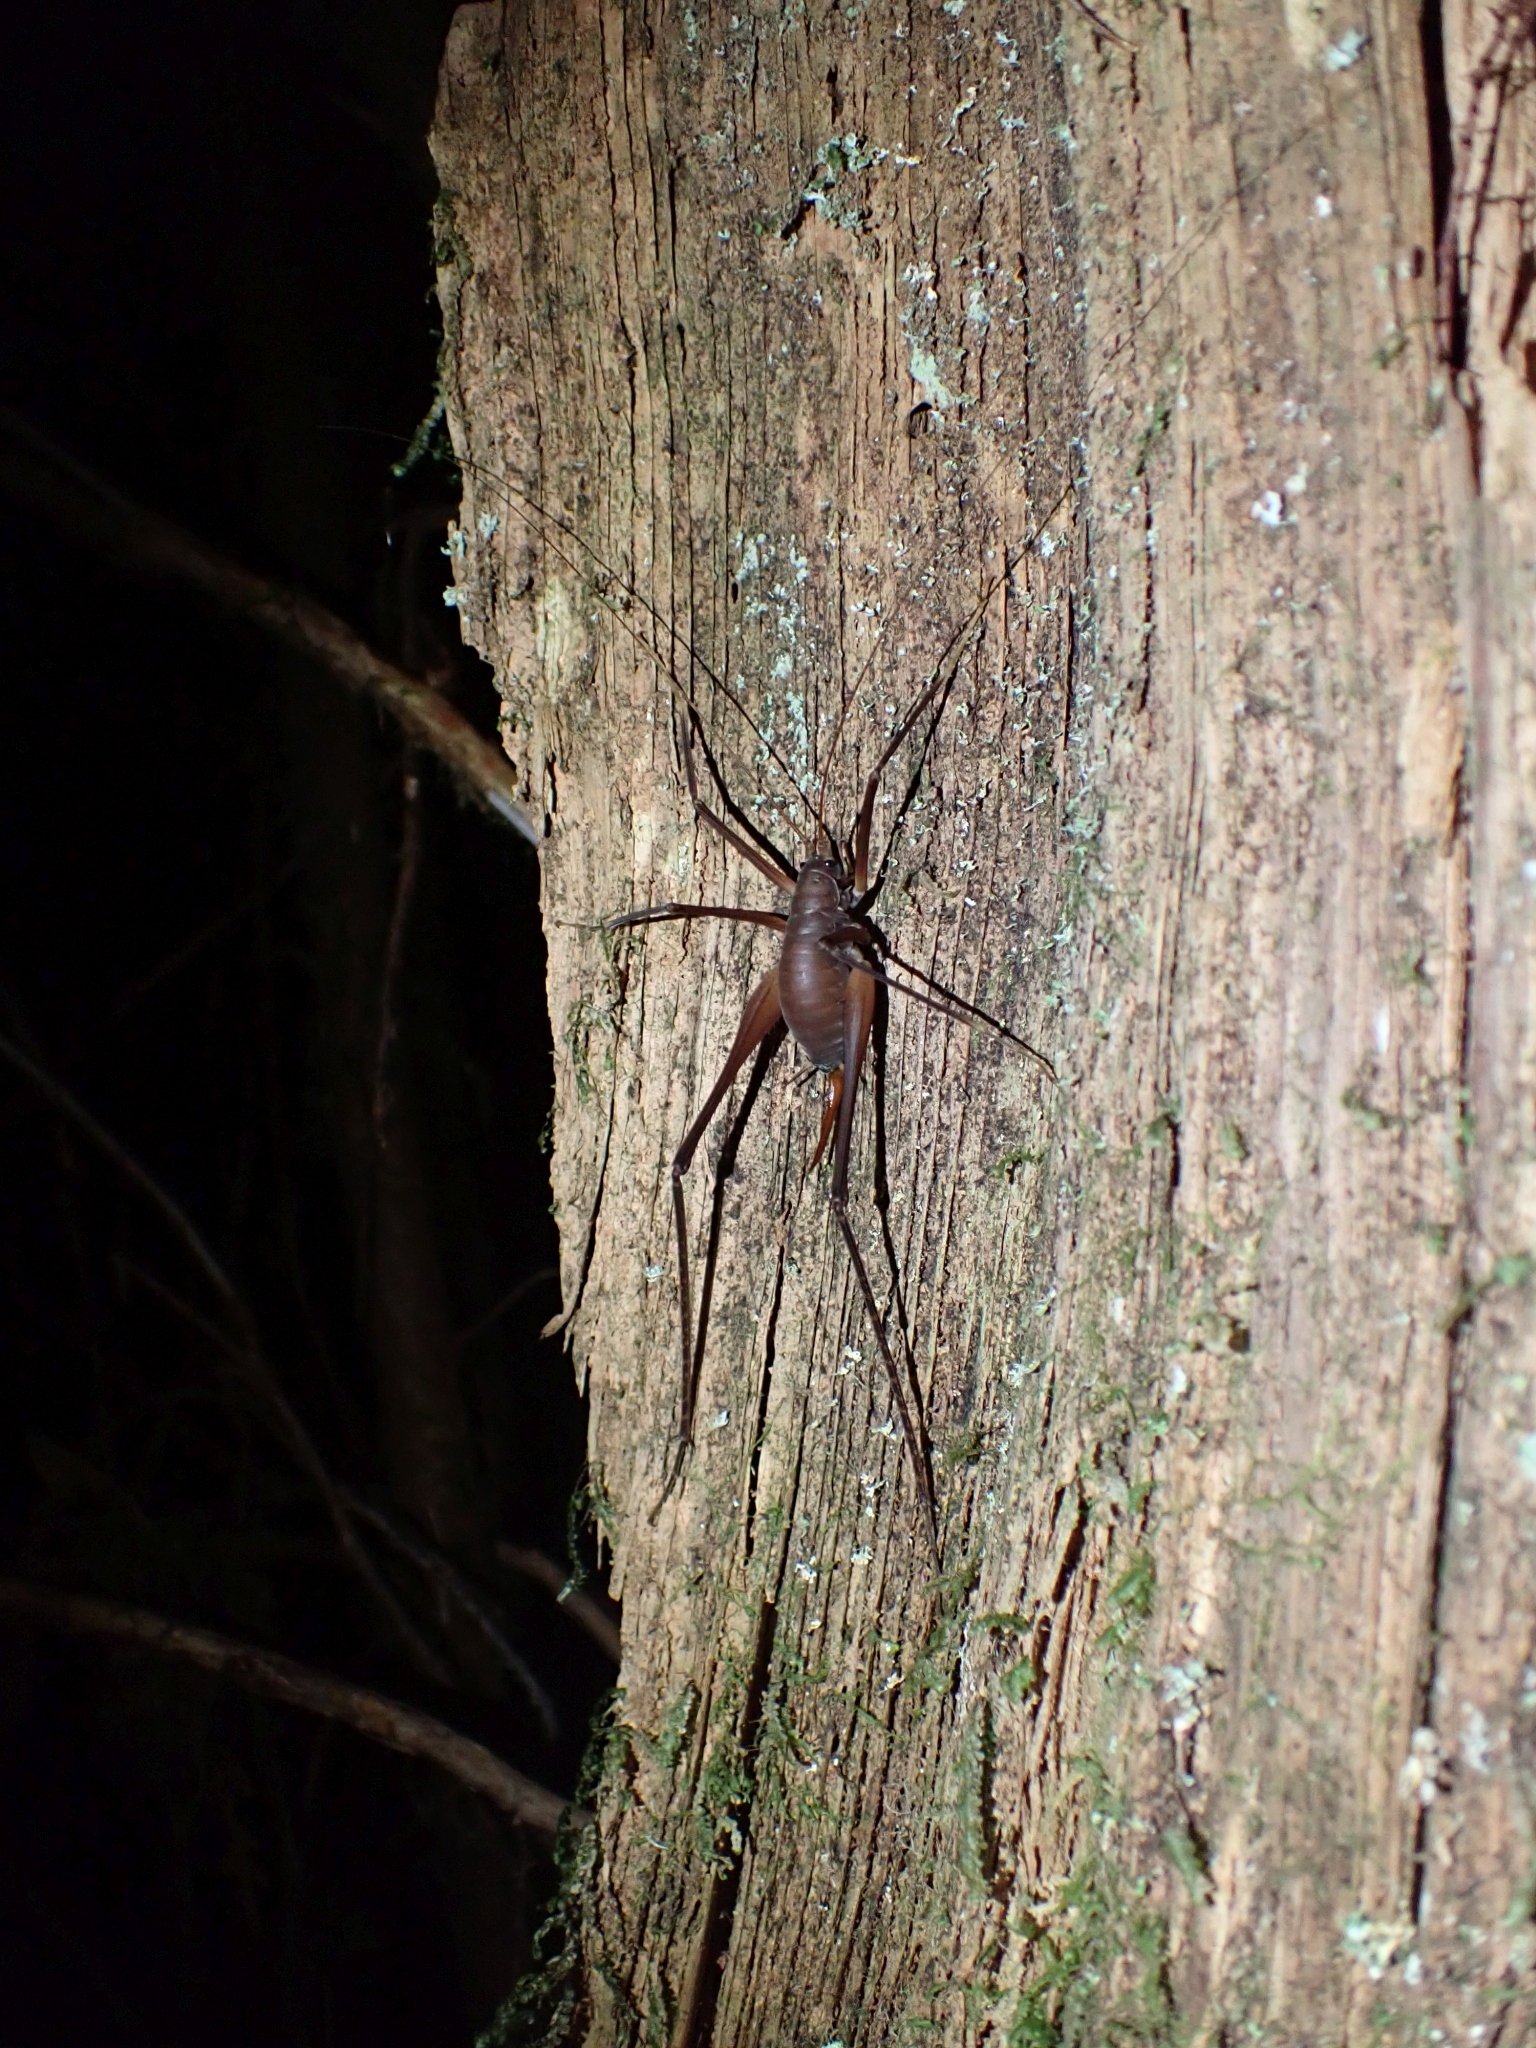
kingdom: Animalia
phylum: Arthropoda
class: Insecta
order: Orthoptera
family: Rhaphidophoridae
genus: Tropidischia
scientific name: Tropidischia xanthostoma
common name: Square-legged camel cricket
